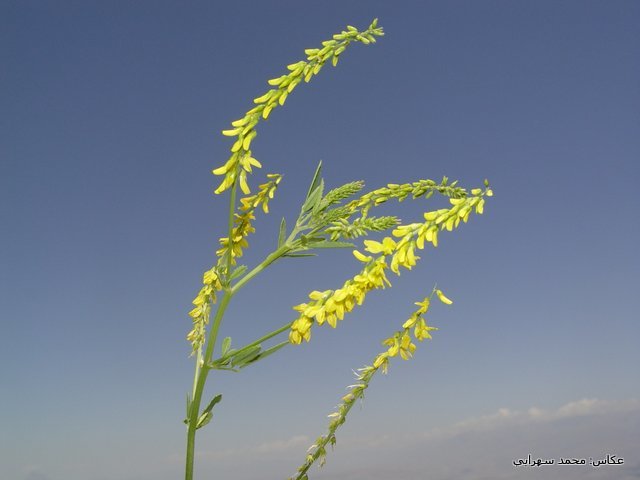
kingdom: Plantae
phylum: Tracheophyta
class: Magnoliopsida
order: Fabales
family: Fabaceae
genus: Melilotus
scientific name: Melilotus officinalis
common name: Sweetclover
